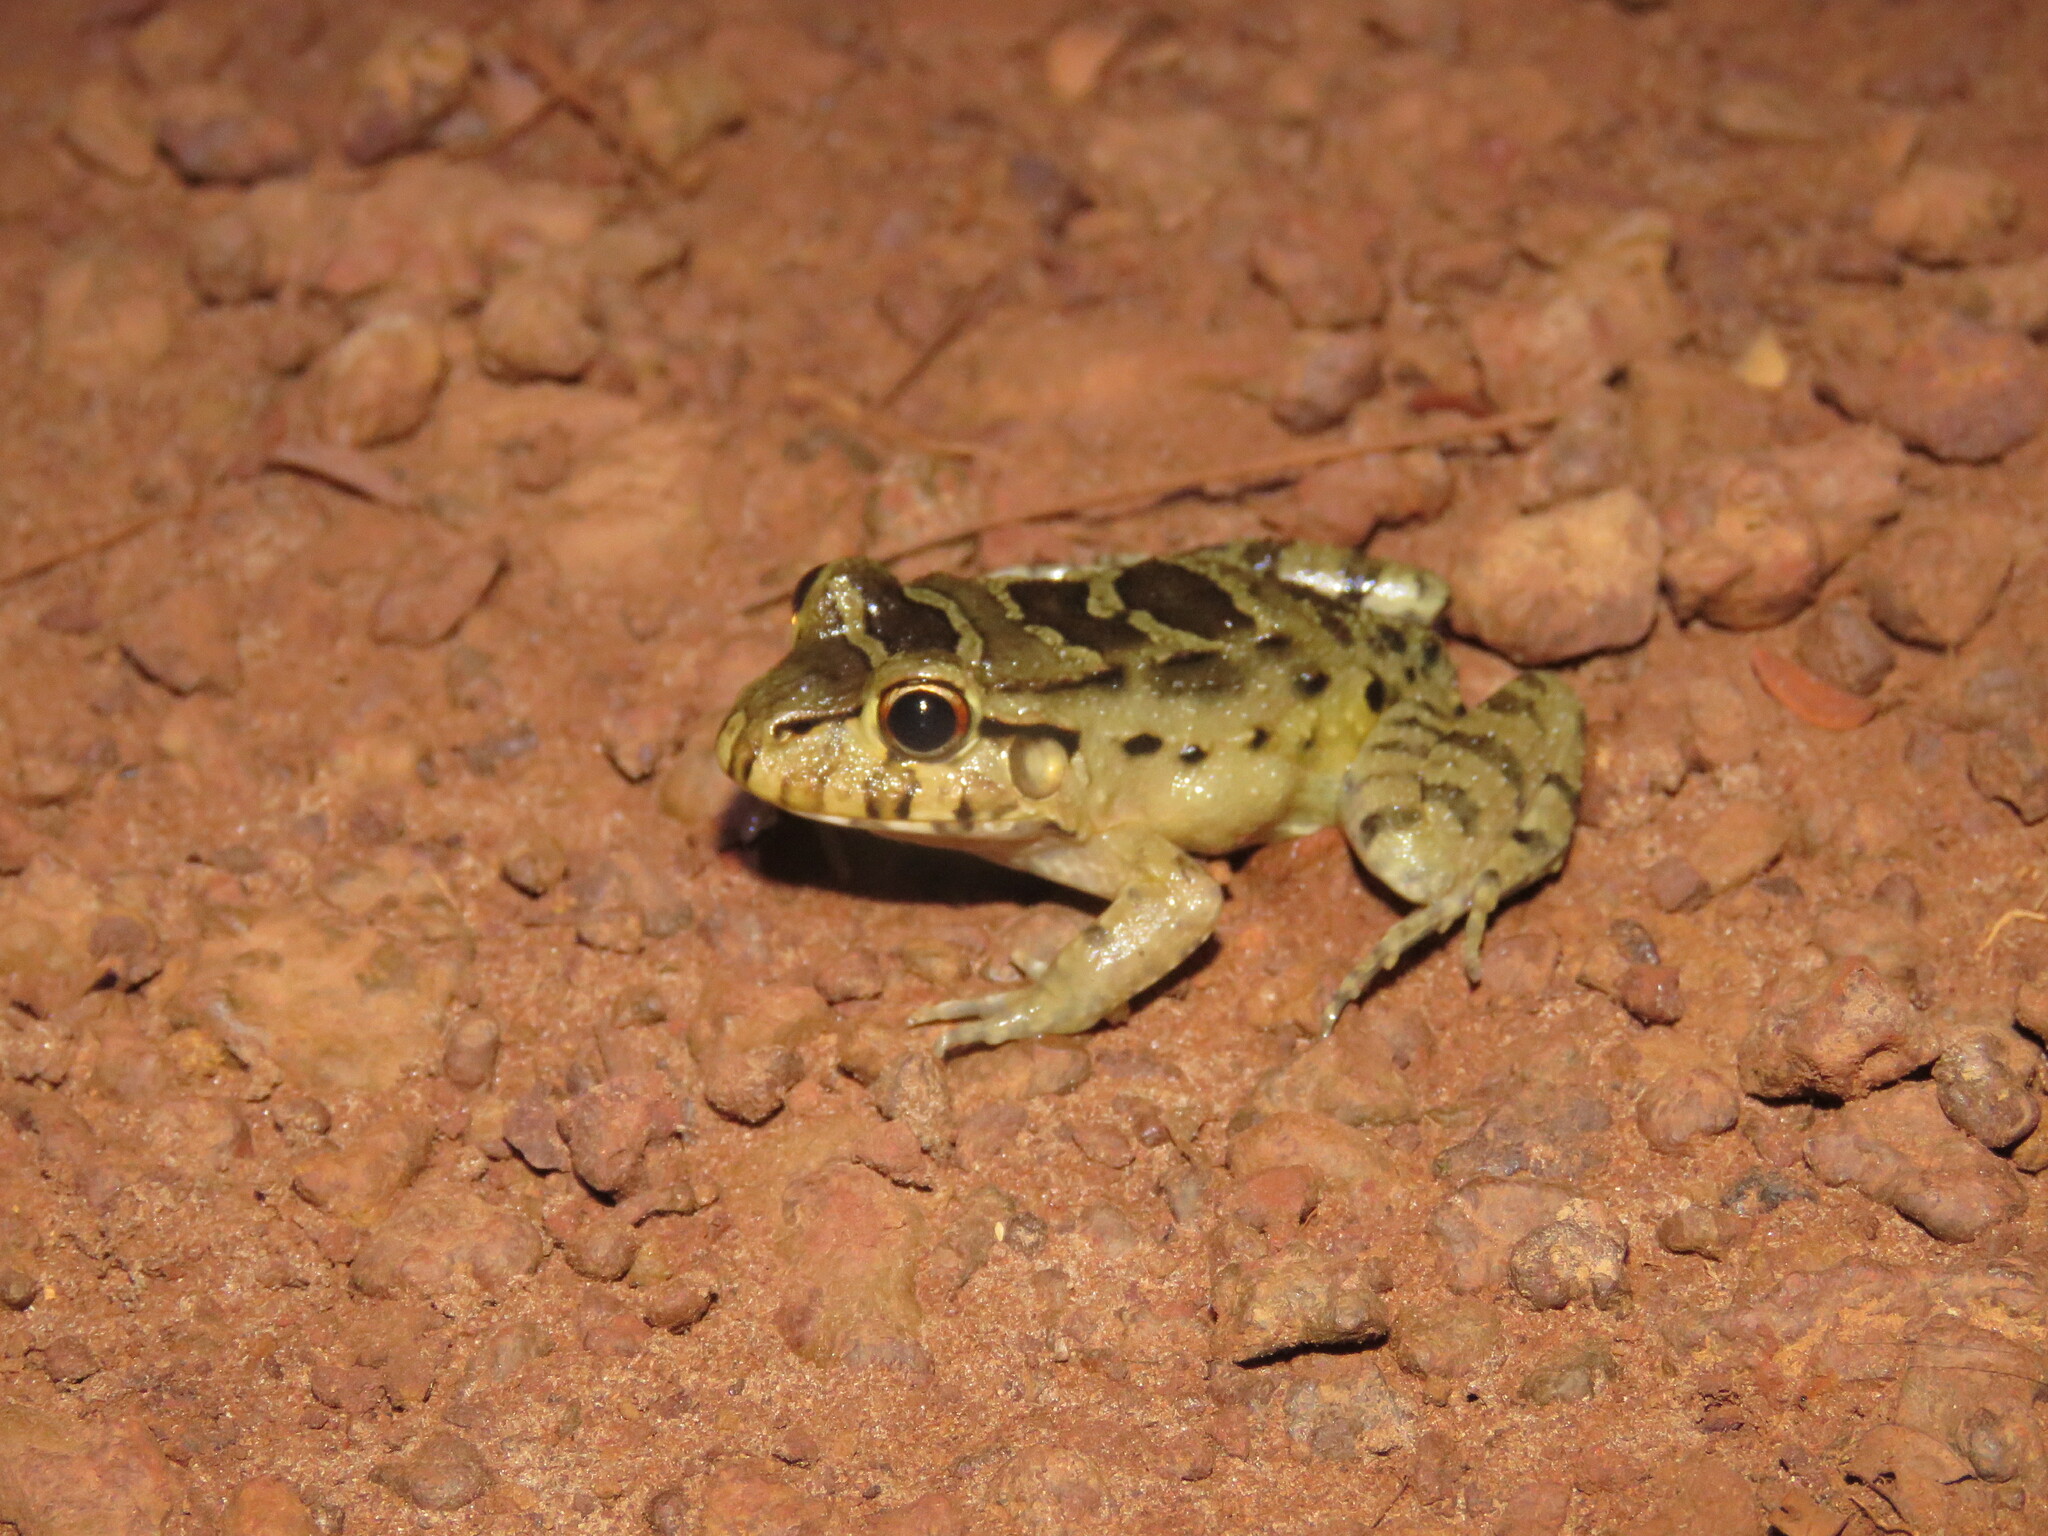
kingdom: Animalia
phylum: Chordata
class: Amphibia
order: Anura
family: Leptodactylidae
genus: Leptodactylus
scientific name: Leptodactylus knudseni
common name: Knudsen's frog
